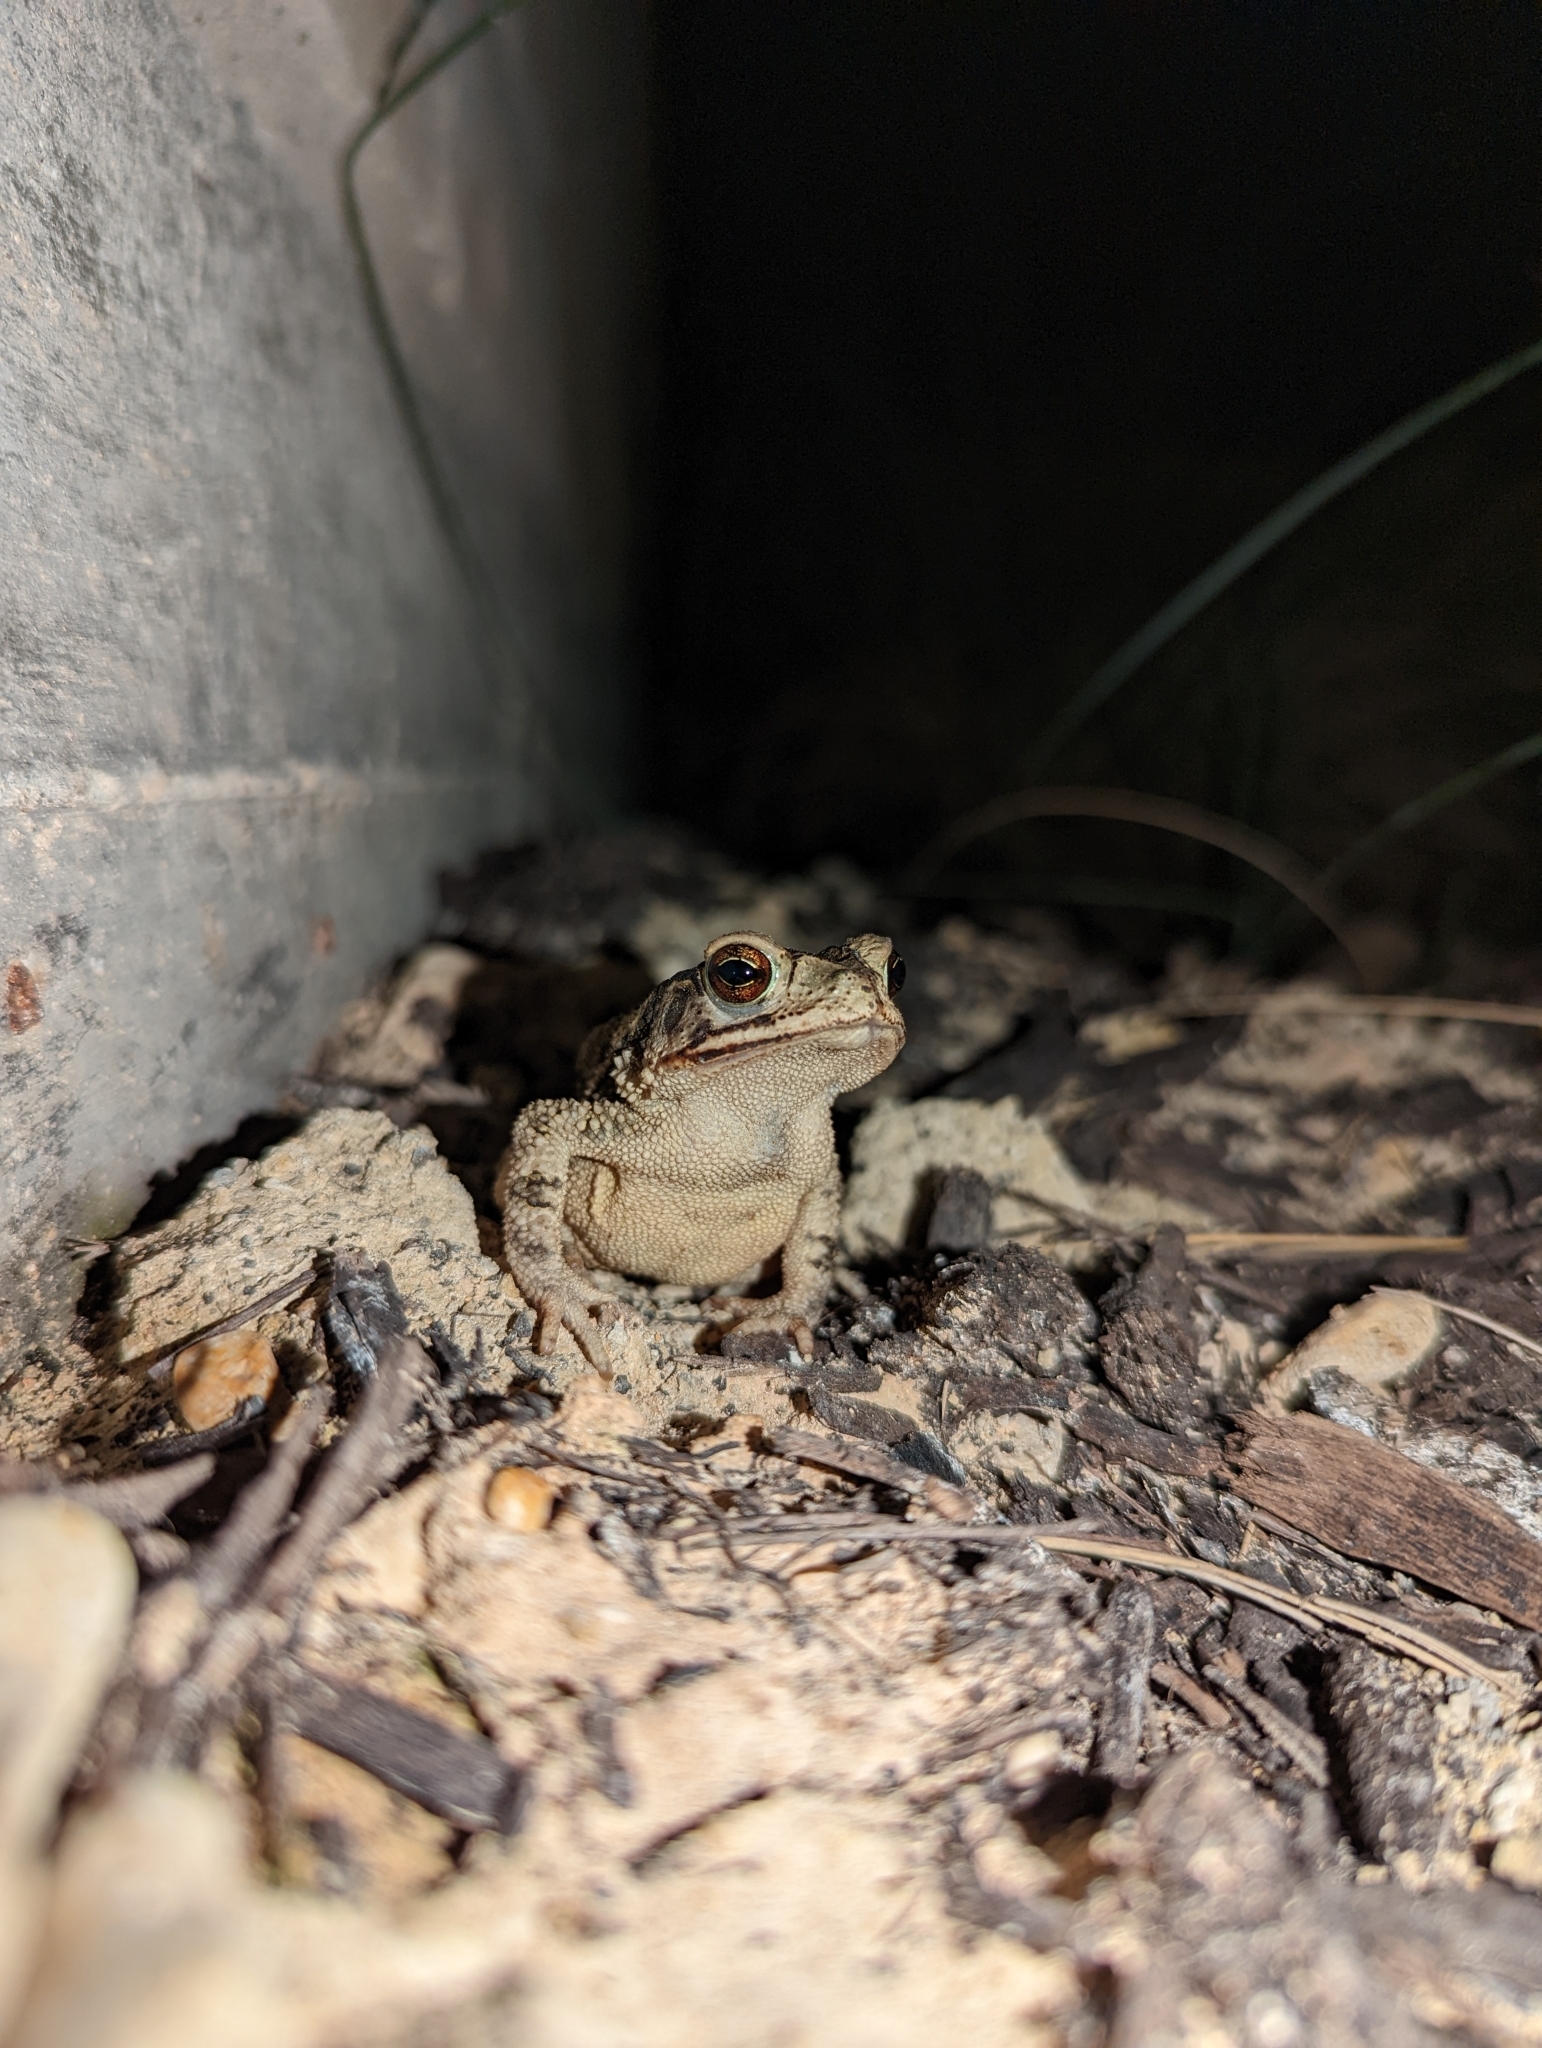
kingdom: Animalia
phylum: Chordata
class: Amphibia
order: Anura
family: Bufonidae
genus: Incilius
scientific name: Incilius nebulifer
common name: Gulf coast toad
